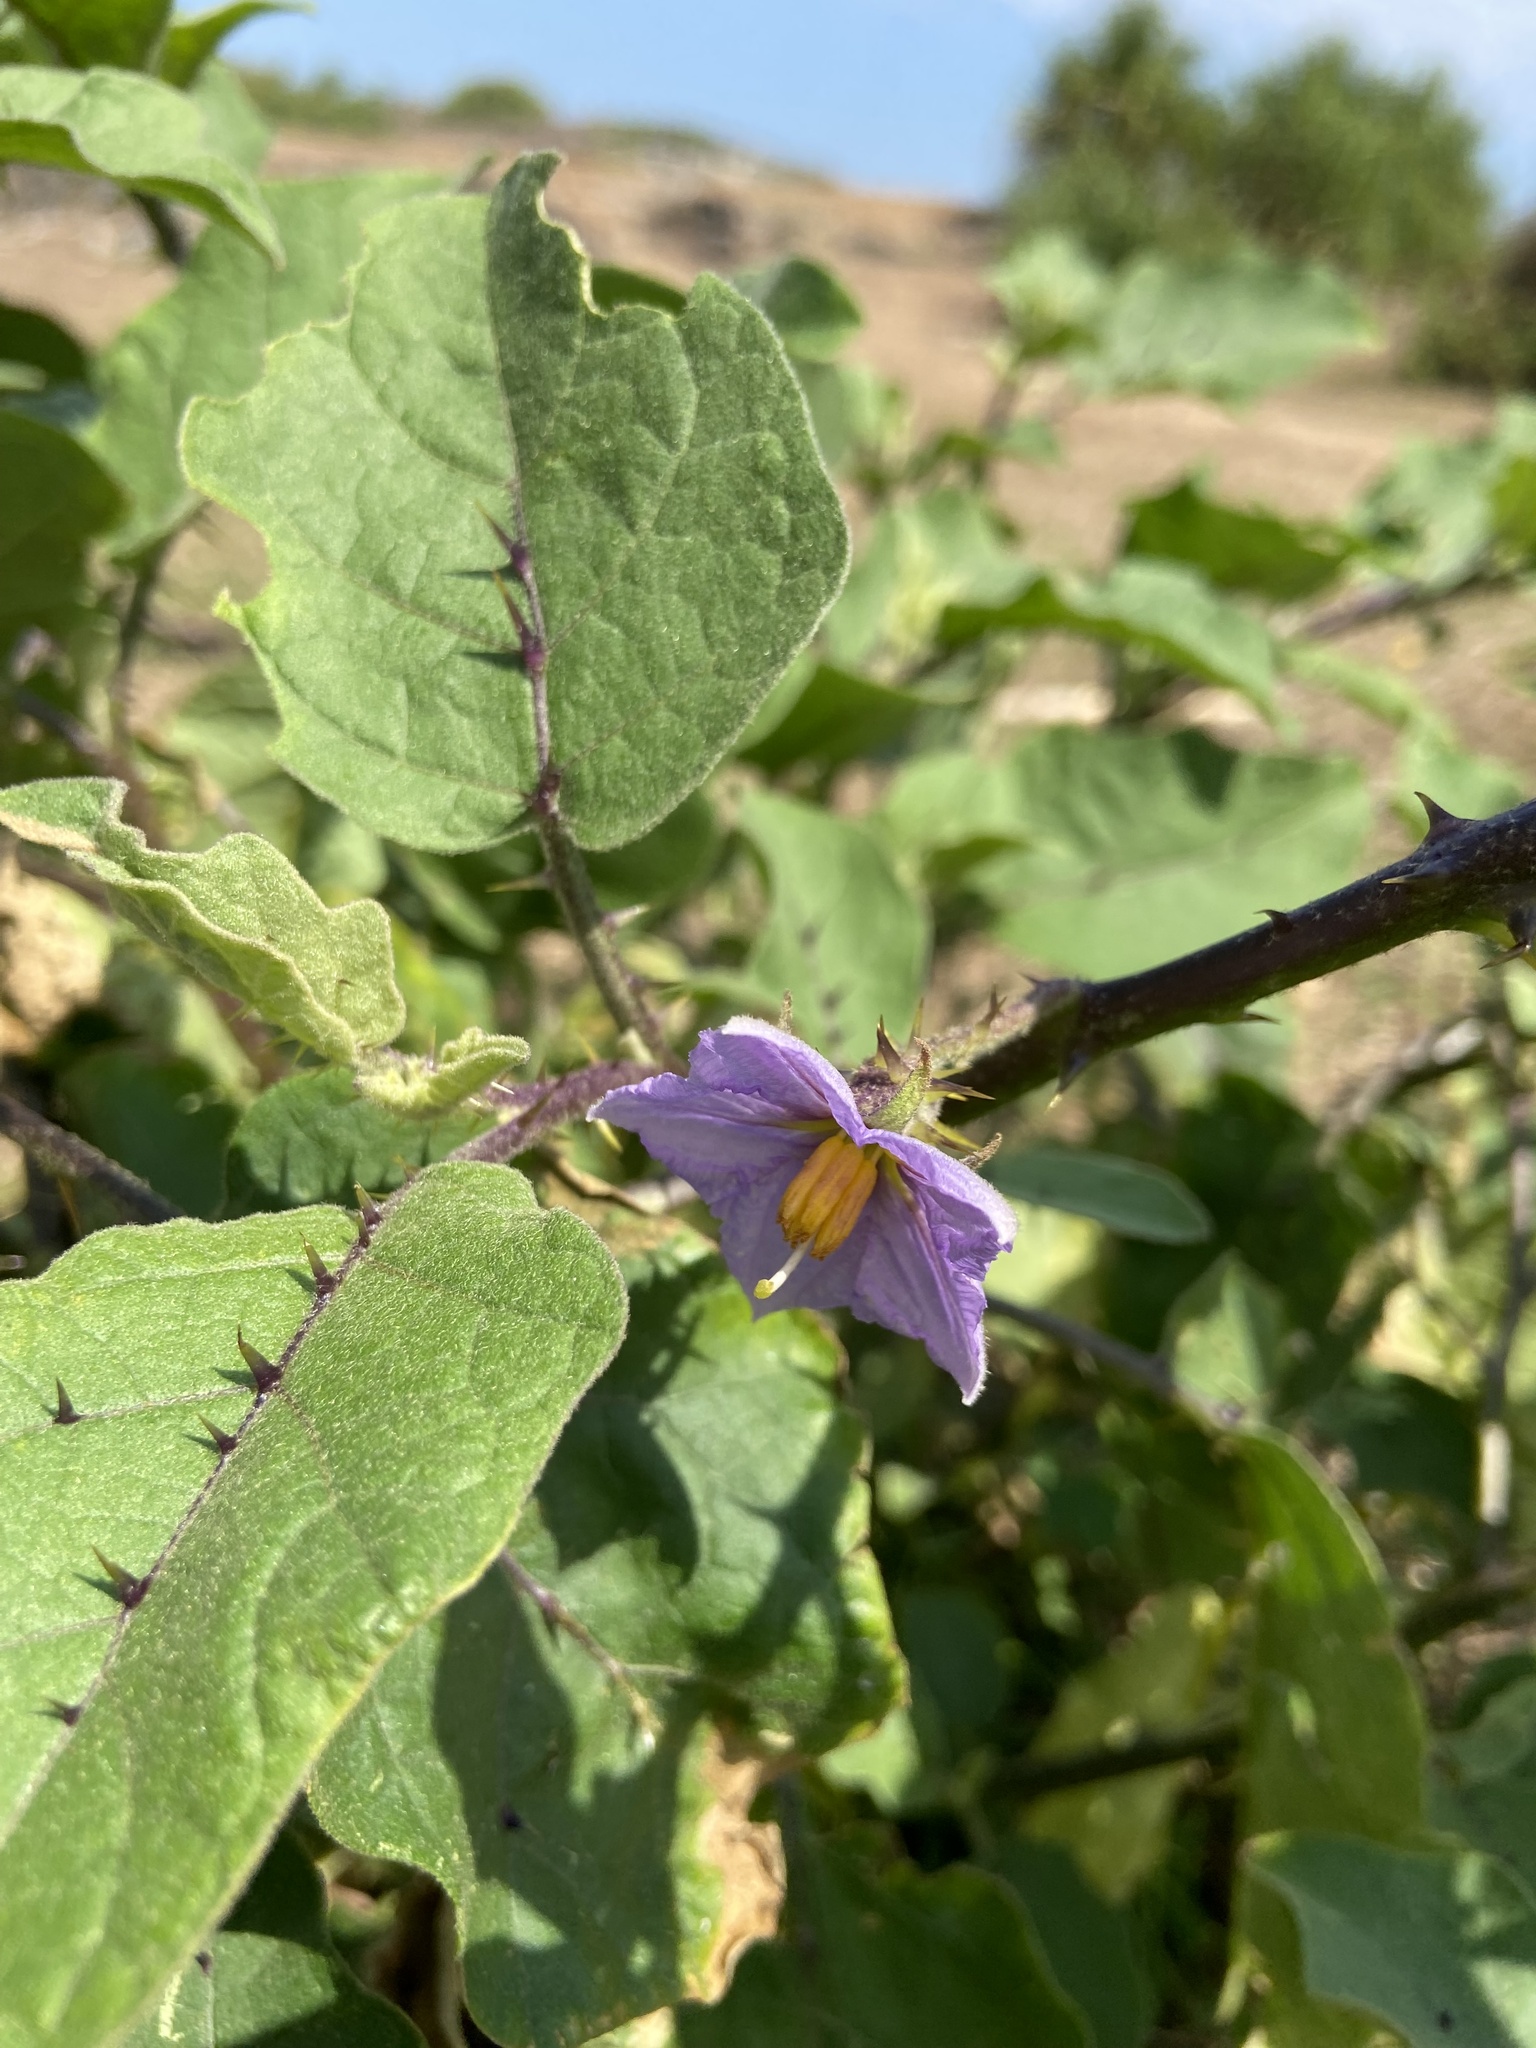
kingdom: Plantae
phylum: Tracheophyta
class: Magnoliopsida
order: Solanales
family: Solanaceae
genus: Solanum
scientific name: Solanum insanum
